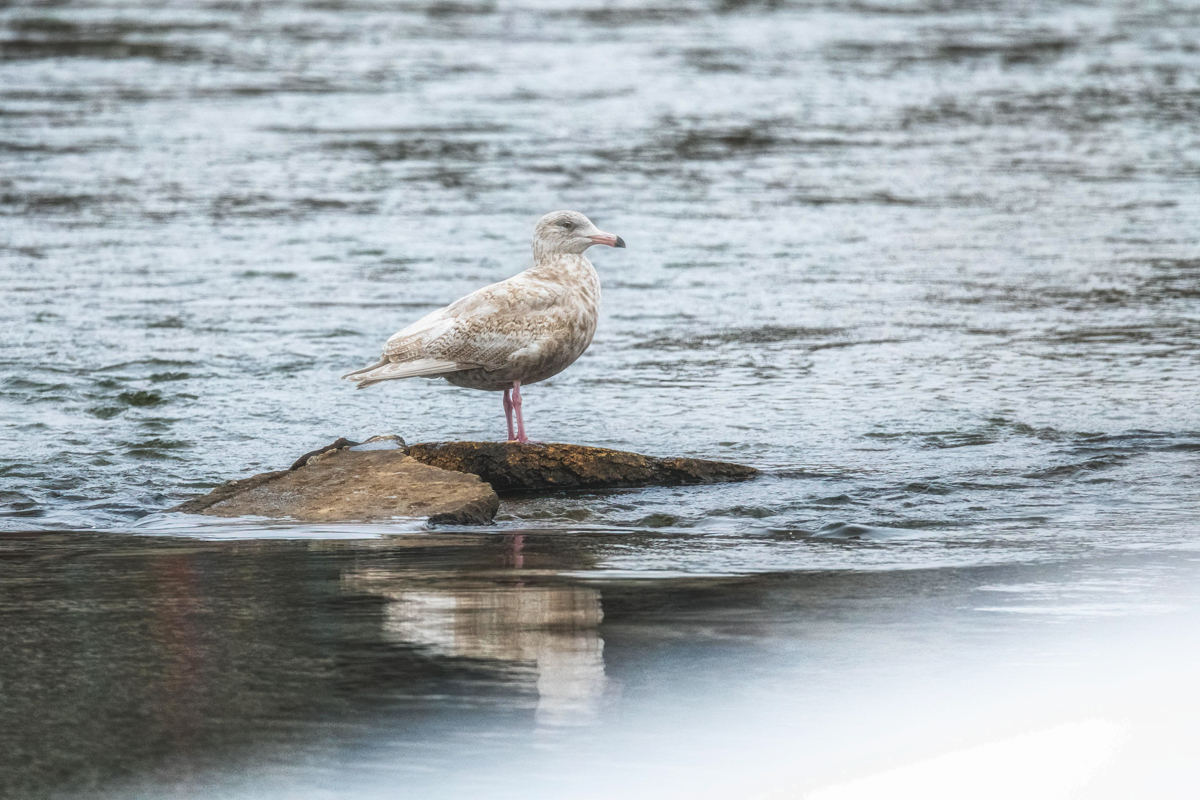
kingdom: Animalia
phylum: Chordata
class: Aves
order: Charadriiformes
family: Laridae
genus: Larus
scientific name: Larus hyperboreus
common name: Glaucous gull
